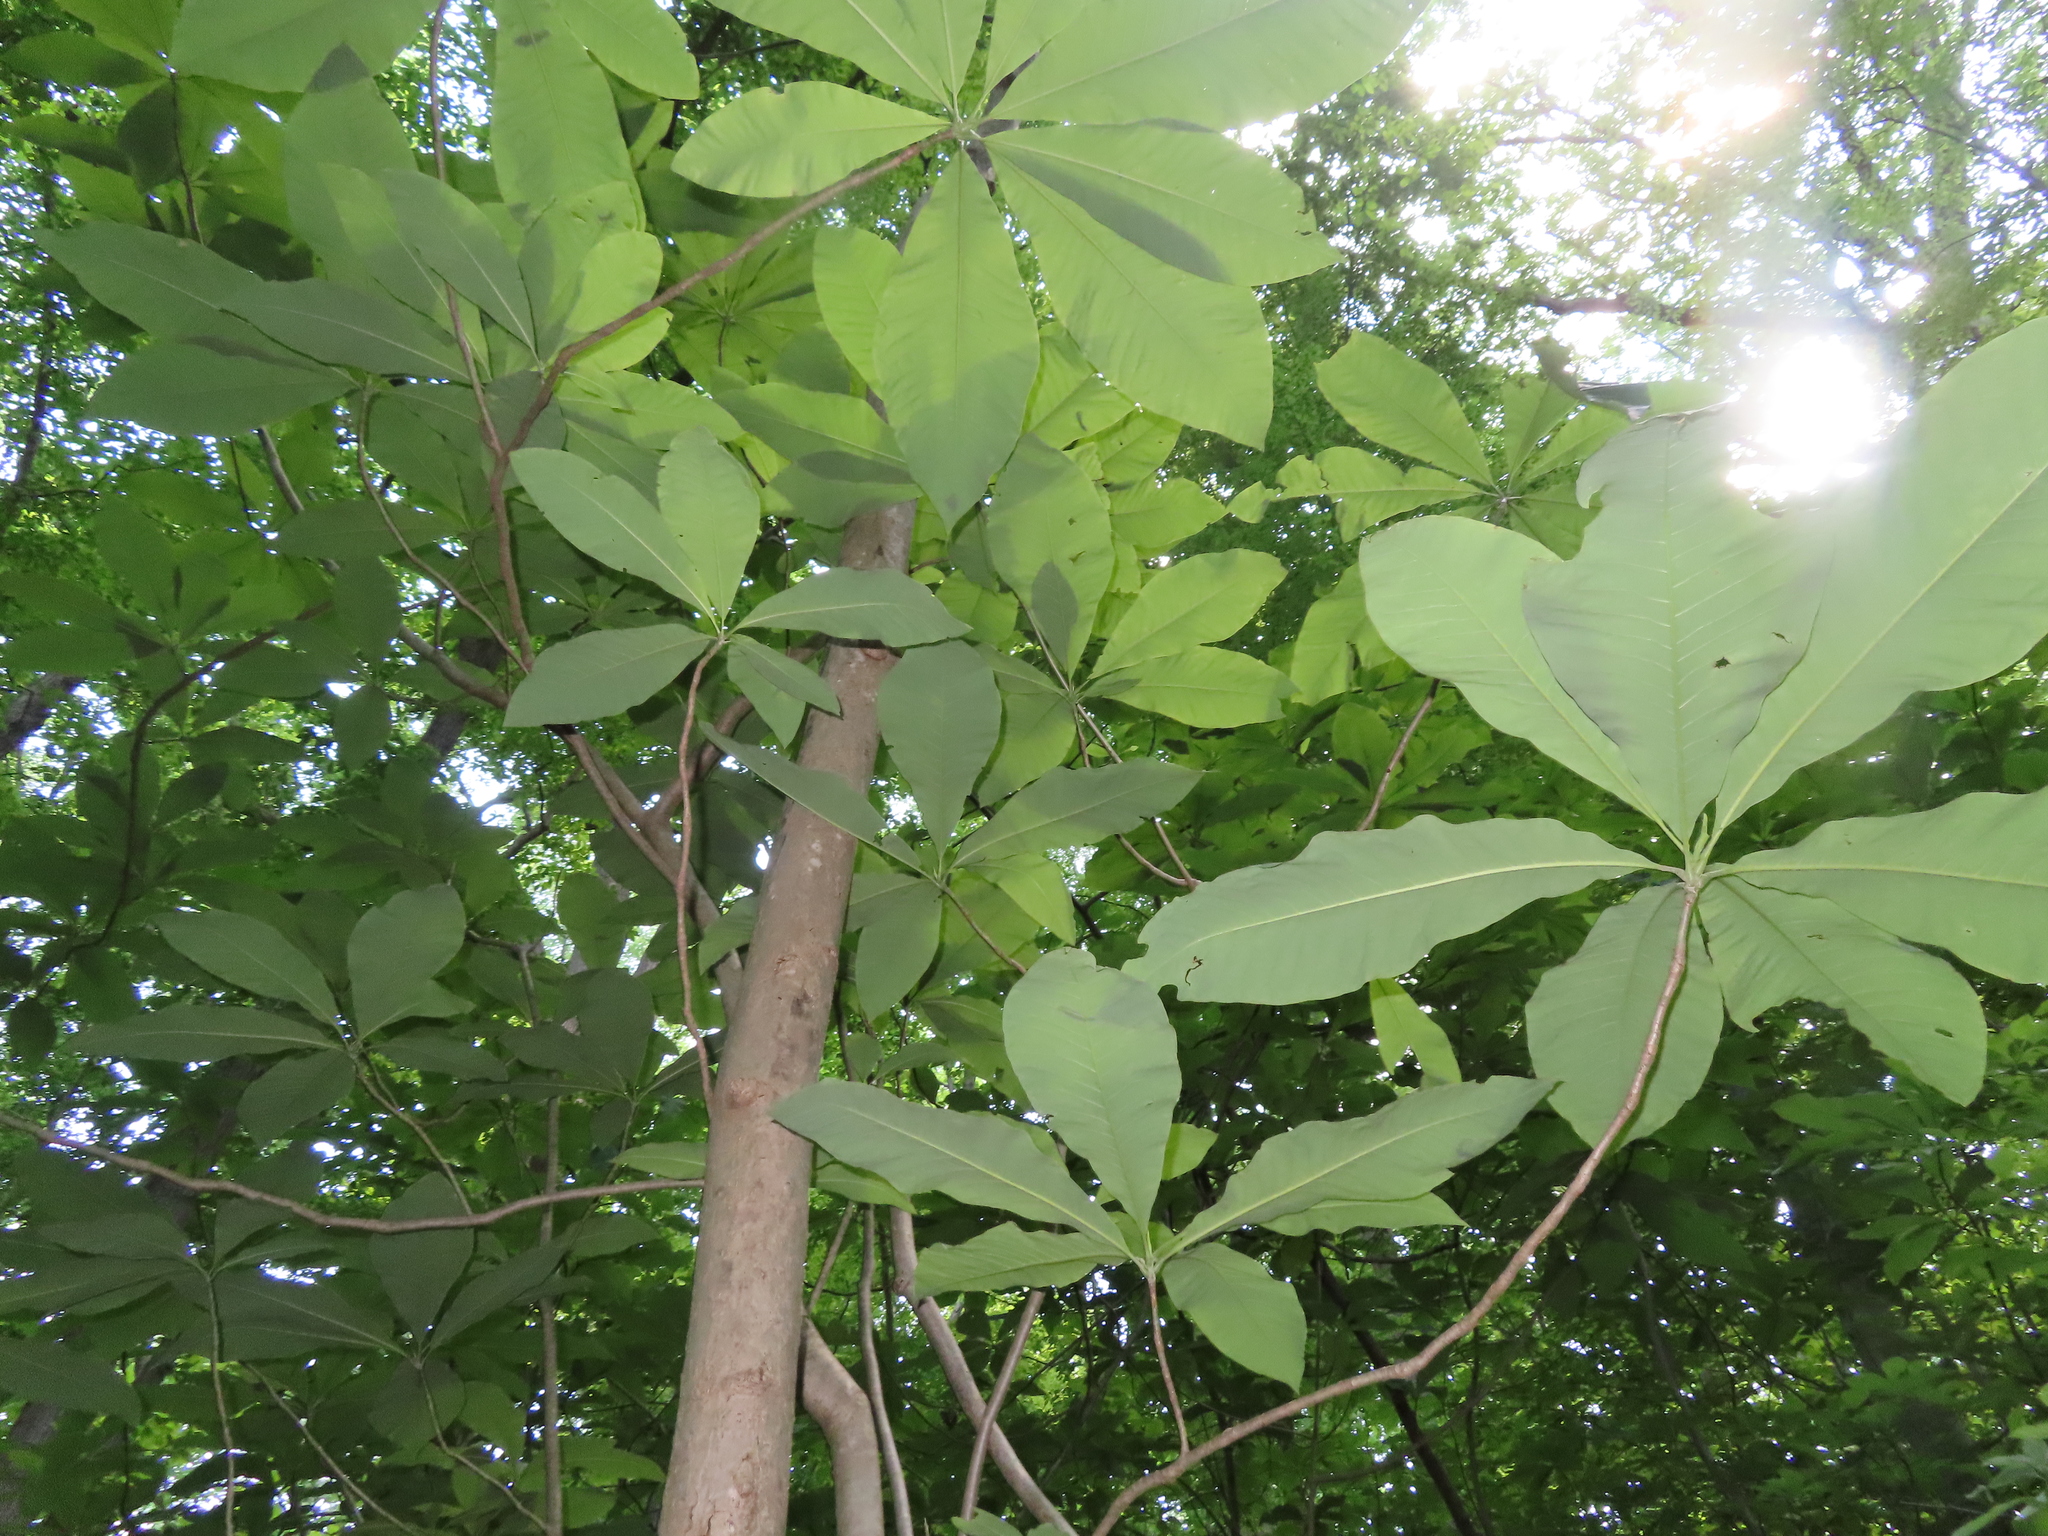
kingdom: Plantae
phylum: Tracheophyta
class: Magnoliopsida
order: Magnoliales
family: Magnoliaceae
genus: Magnolia
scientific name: Magnolia tripetala
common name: Umbrella magnolia
